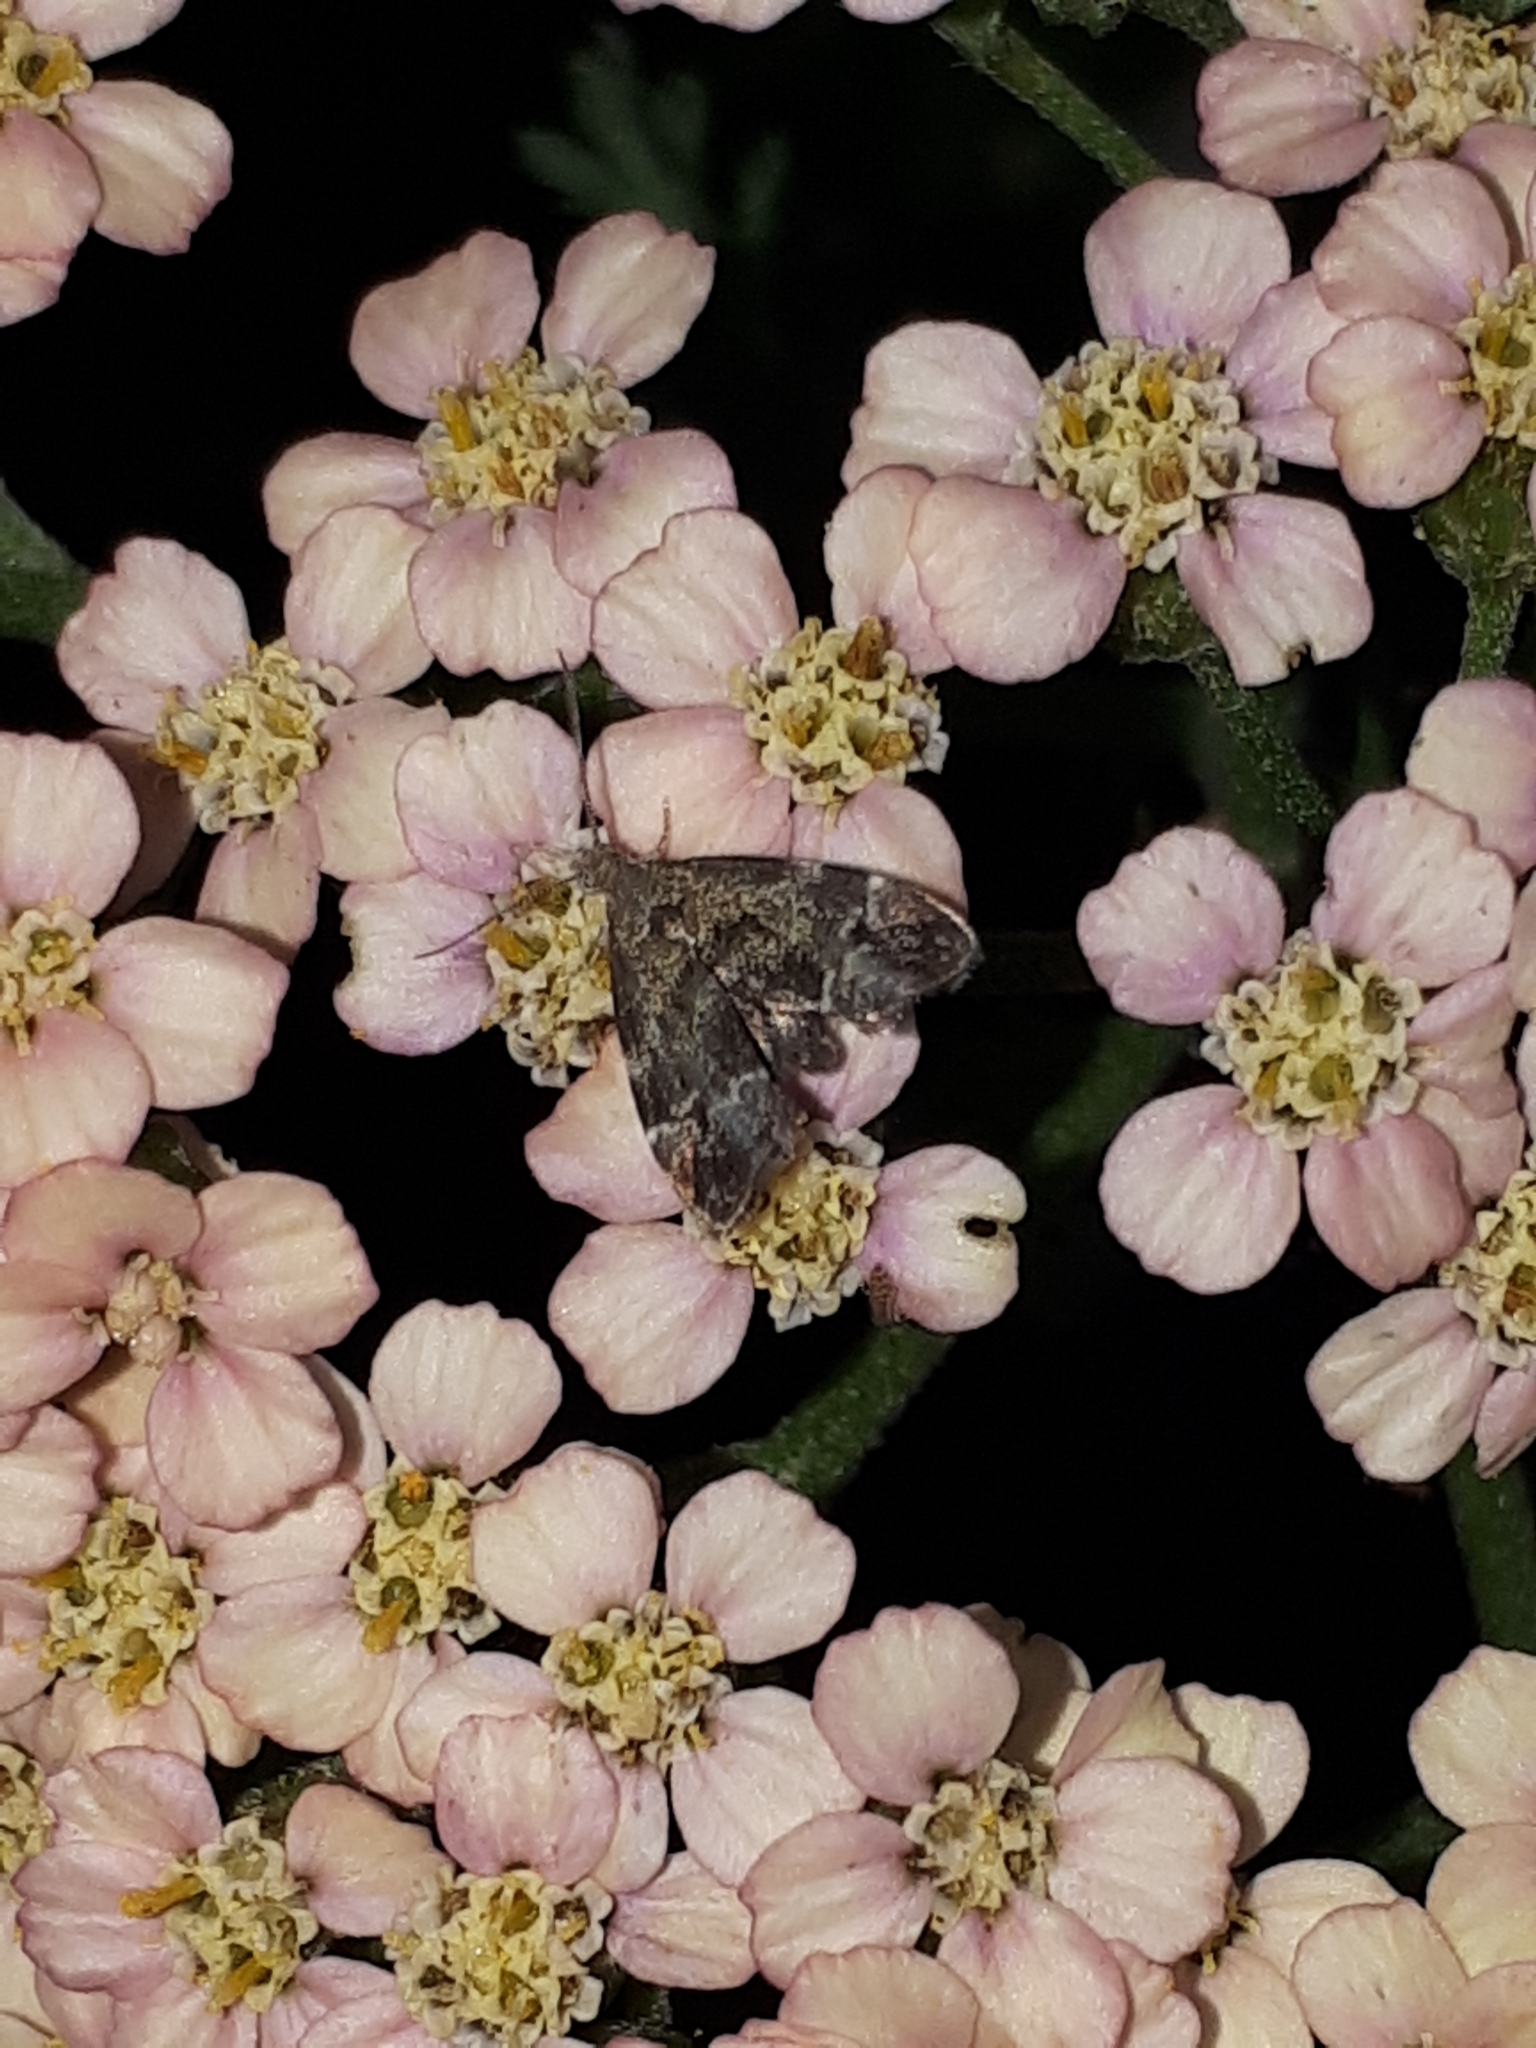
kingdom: Animalia
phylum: Arthropoda
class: Insecta
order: Lepidoptera
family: Choreutidae
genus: Anthophila
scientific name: Anthophila fabriciana
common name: Nettle-tap
